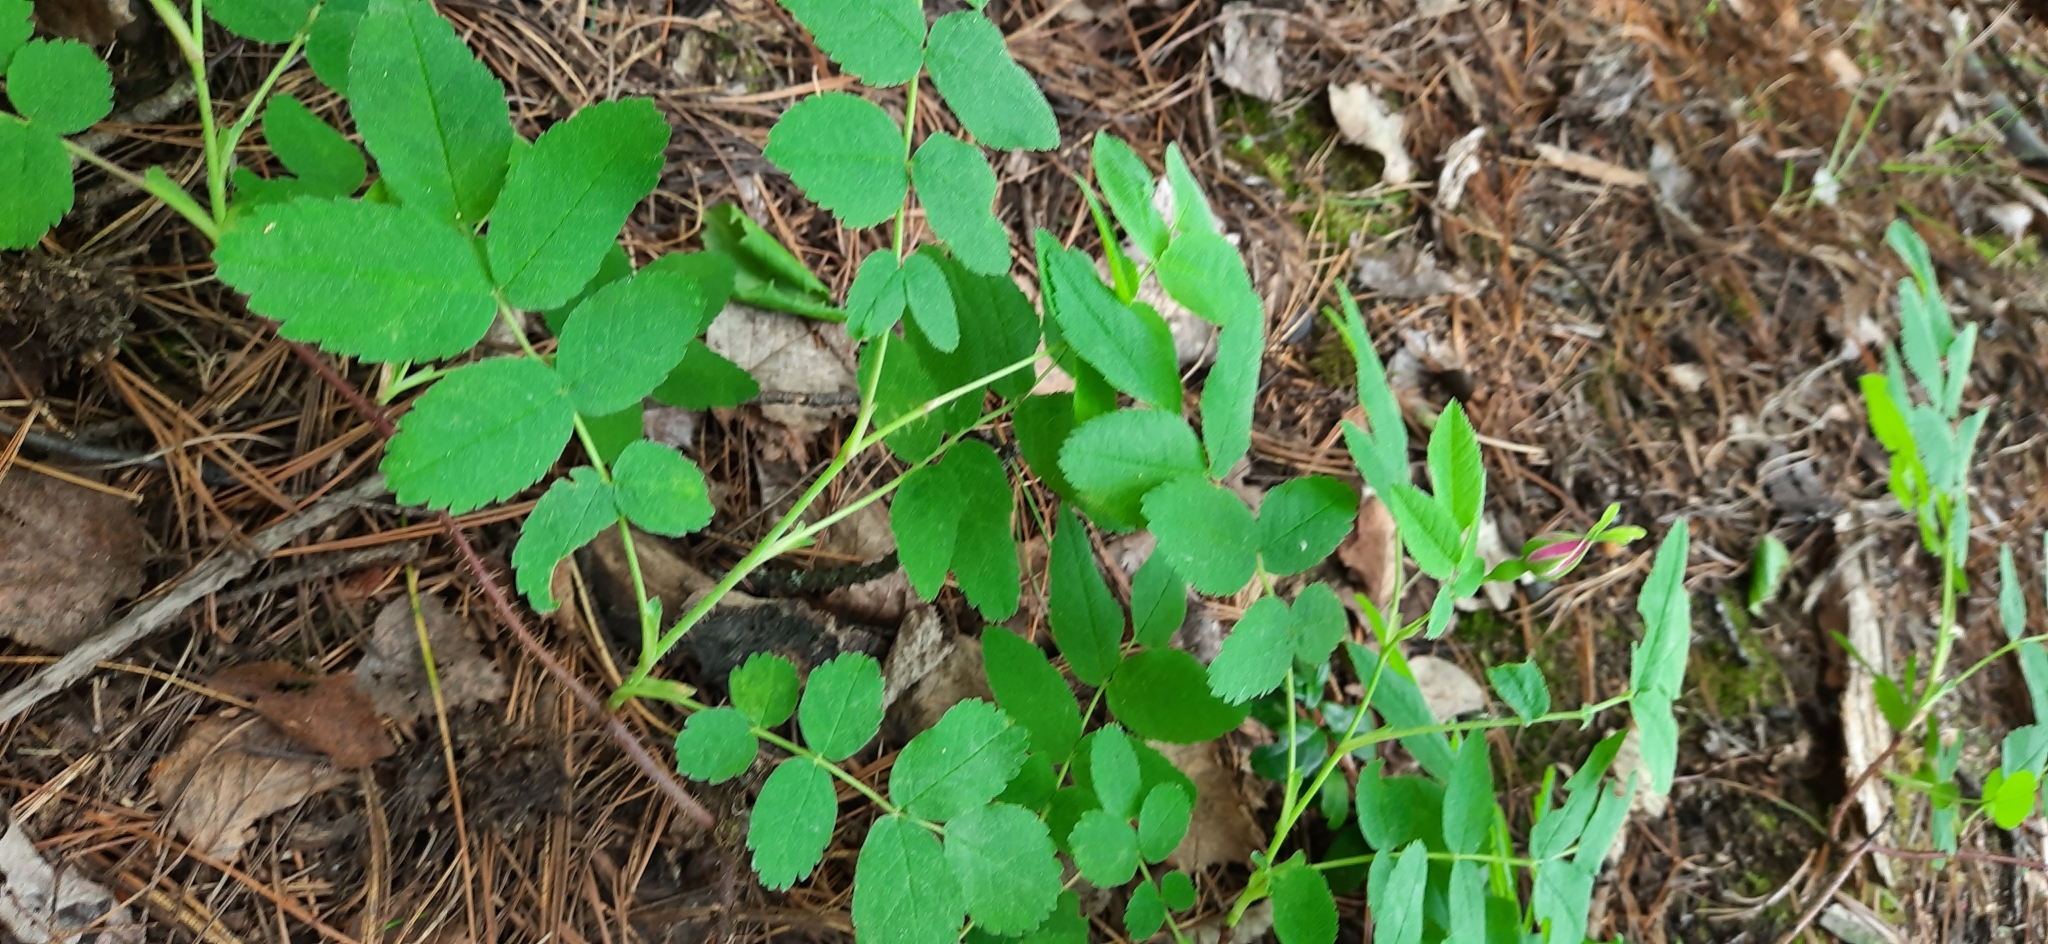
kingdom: Plantae
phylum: Tracheophyta
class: Magnoliopsida
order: Rosales
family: Rosaceae
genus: Rosa
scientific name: Rosa acicularis
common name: Prickly rose
